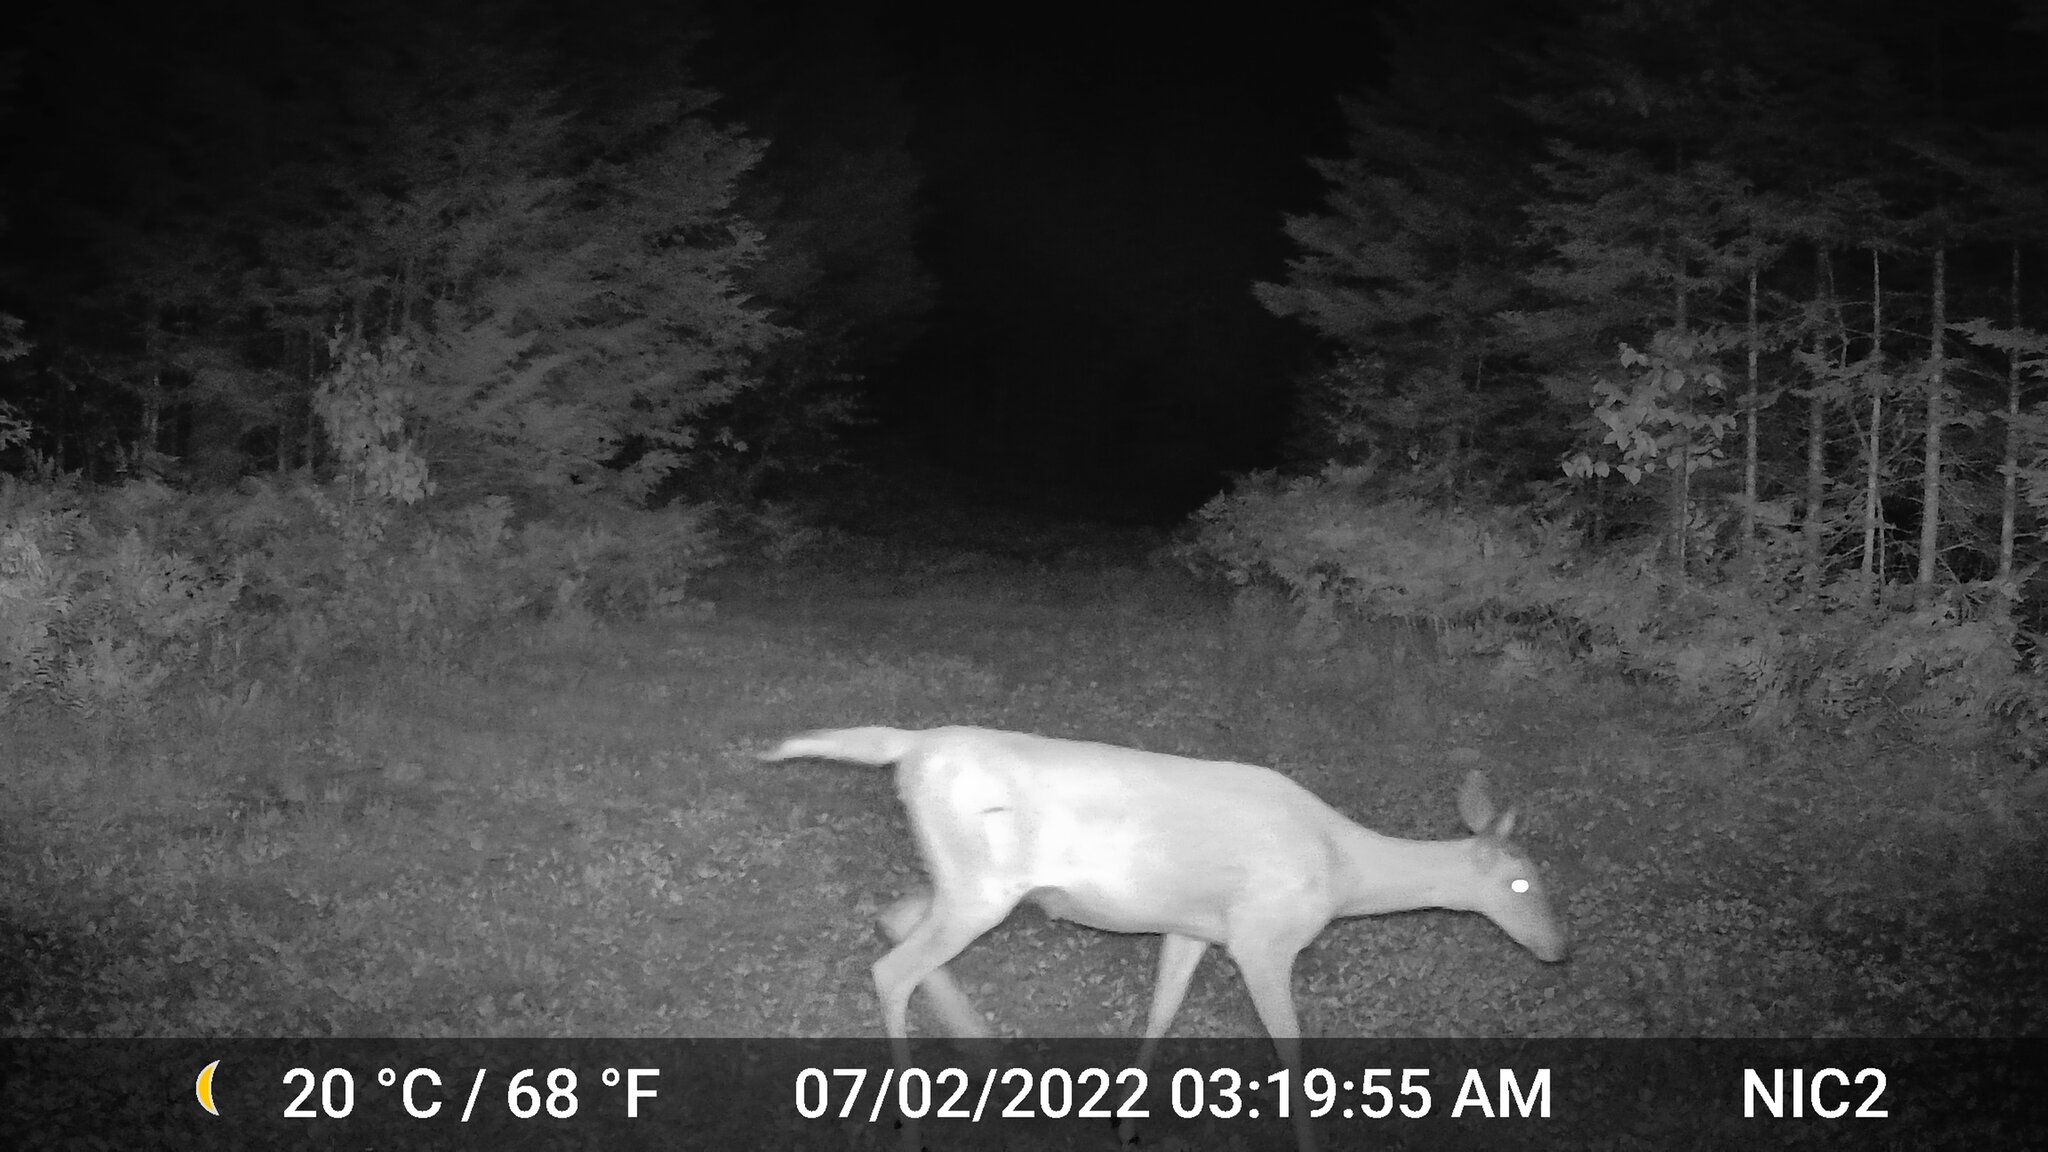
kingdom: Animalia
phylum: Chordata
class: Mammalia
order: Artiodactyla
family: Cervidae
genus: Odocoileus
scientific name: Odocoileus virginianus
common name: White-tailed deer
